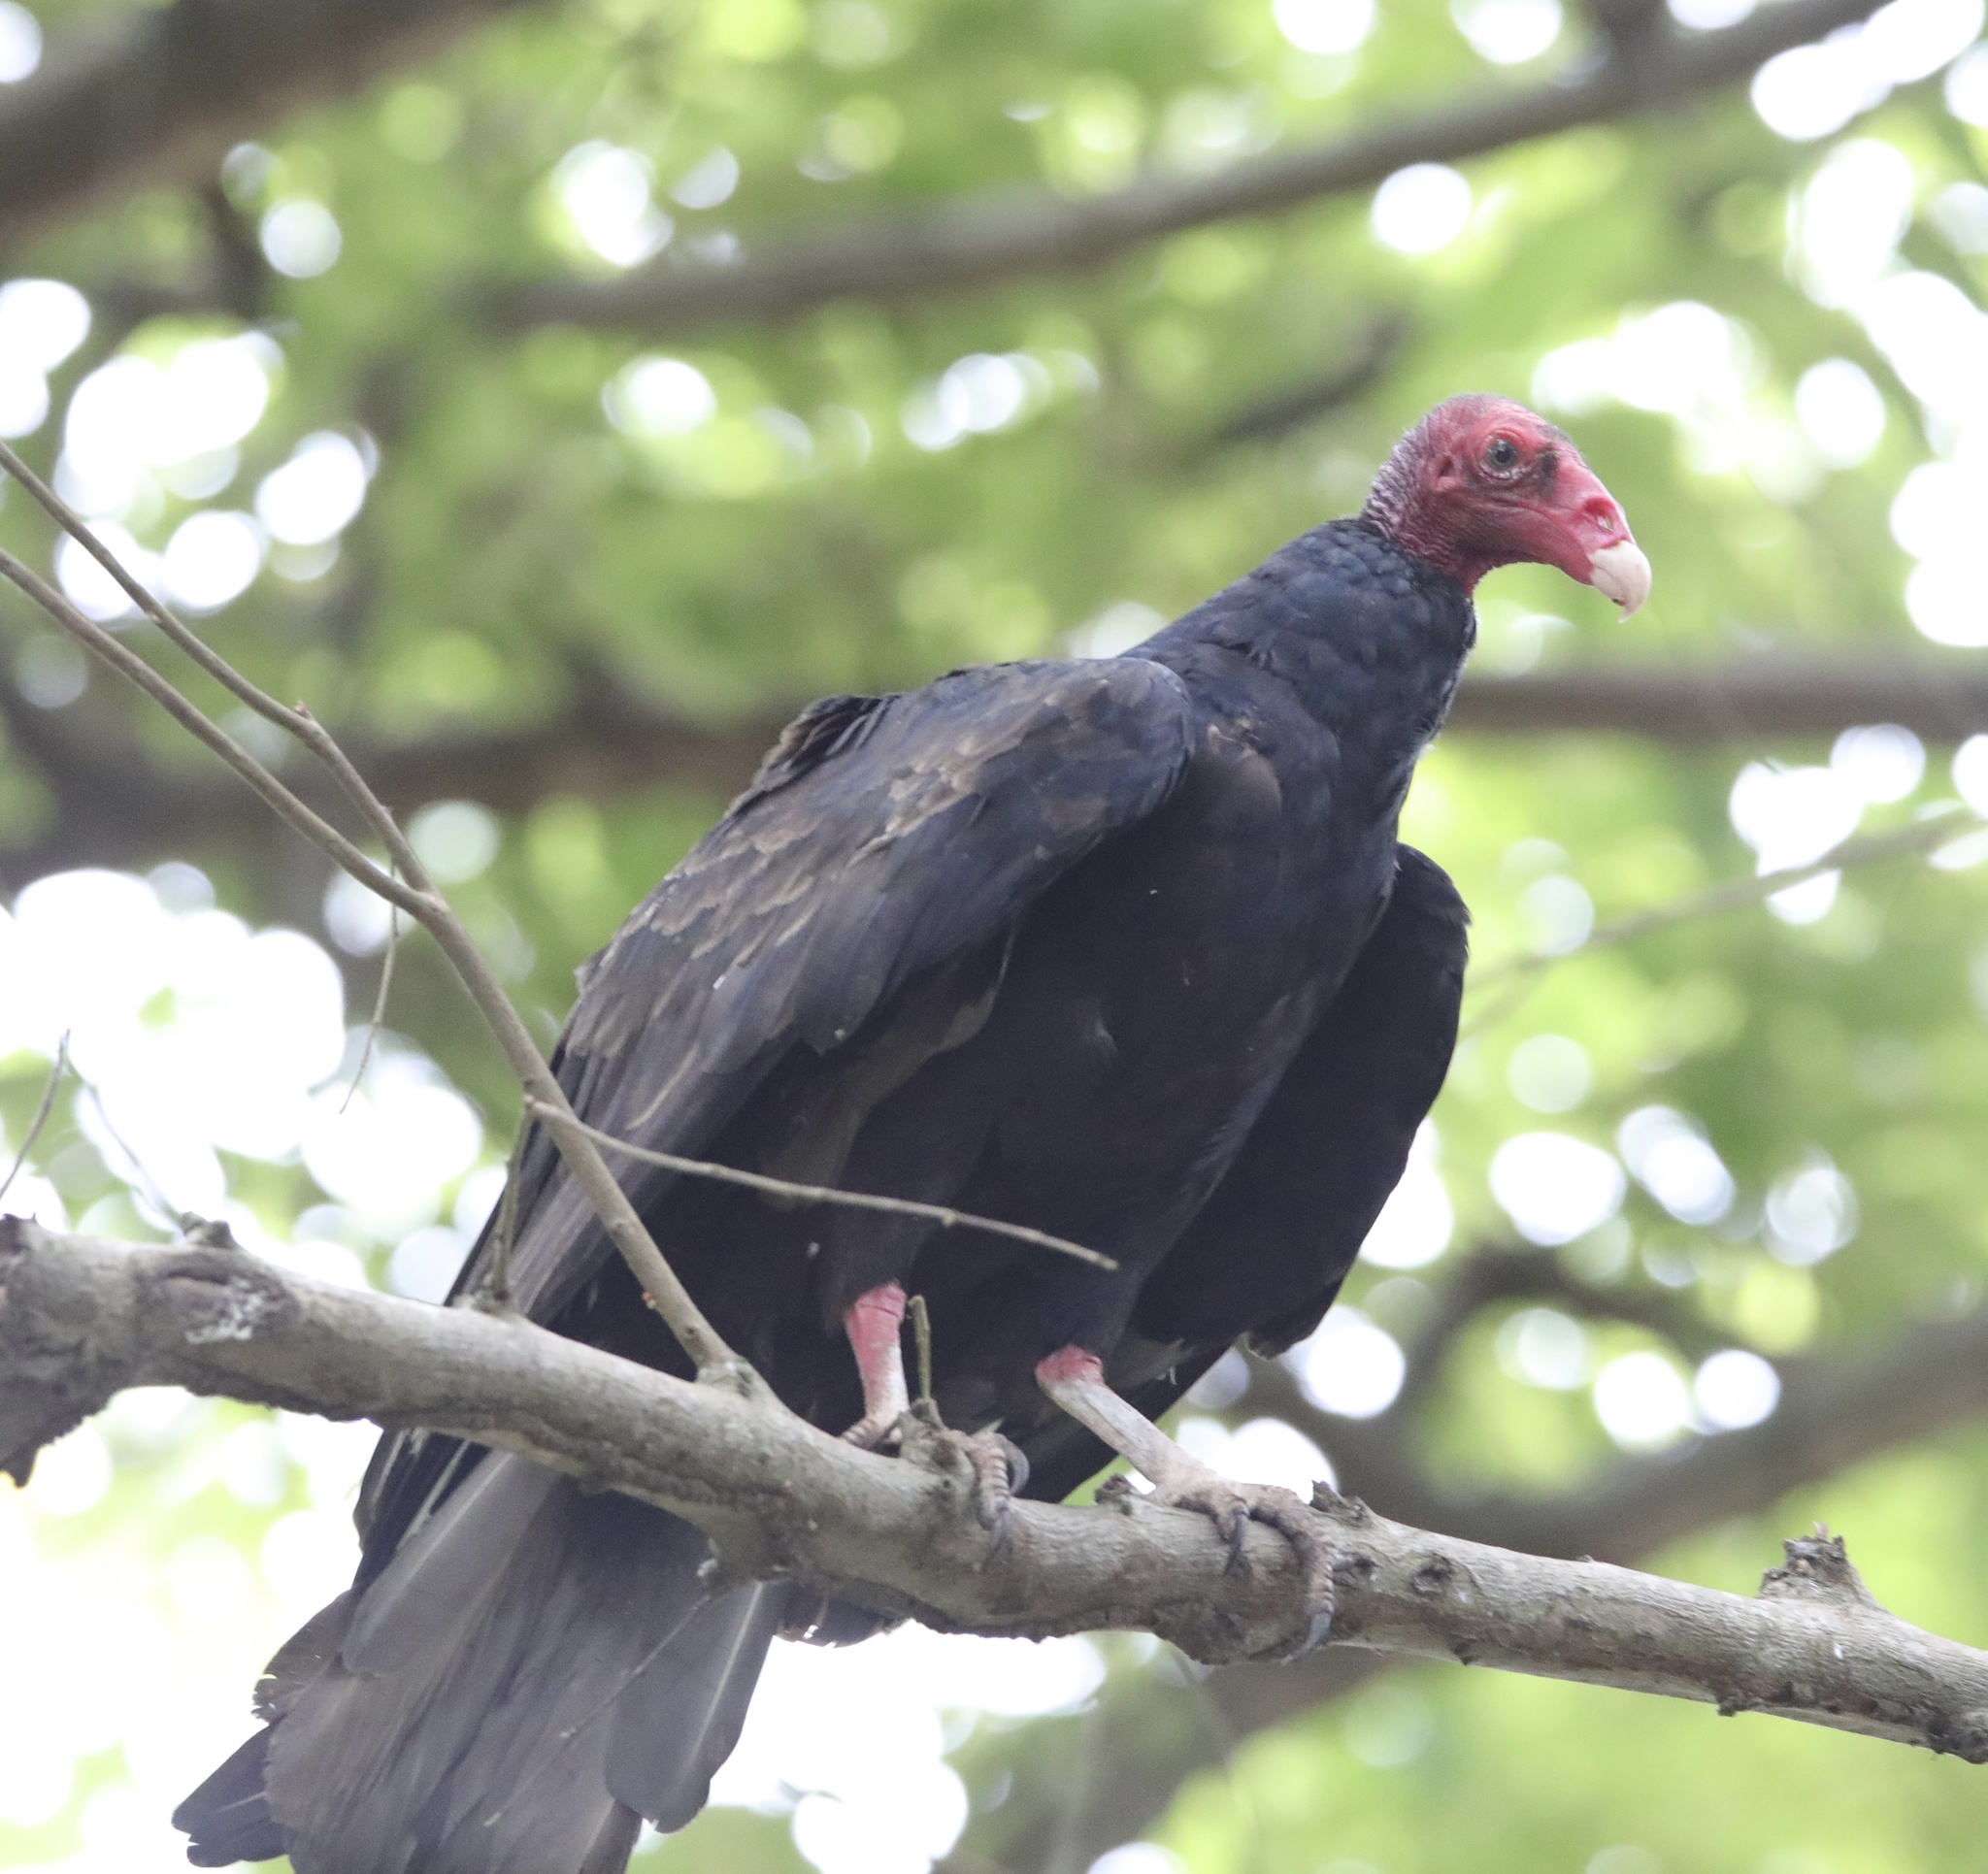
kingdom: Animalia
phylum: Chordata
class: Aves
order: Accipitriformes
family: Cathartidae
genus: Cathartes
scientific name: Cathartes aura
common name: Turkey vulture
